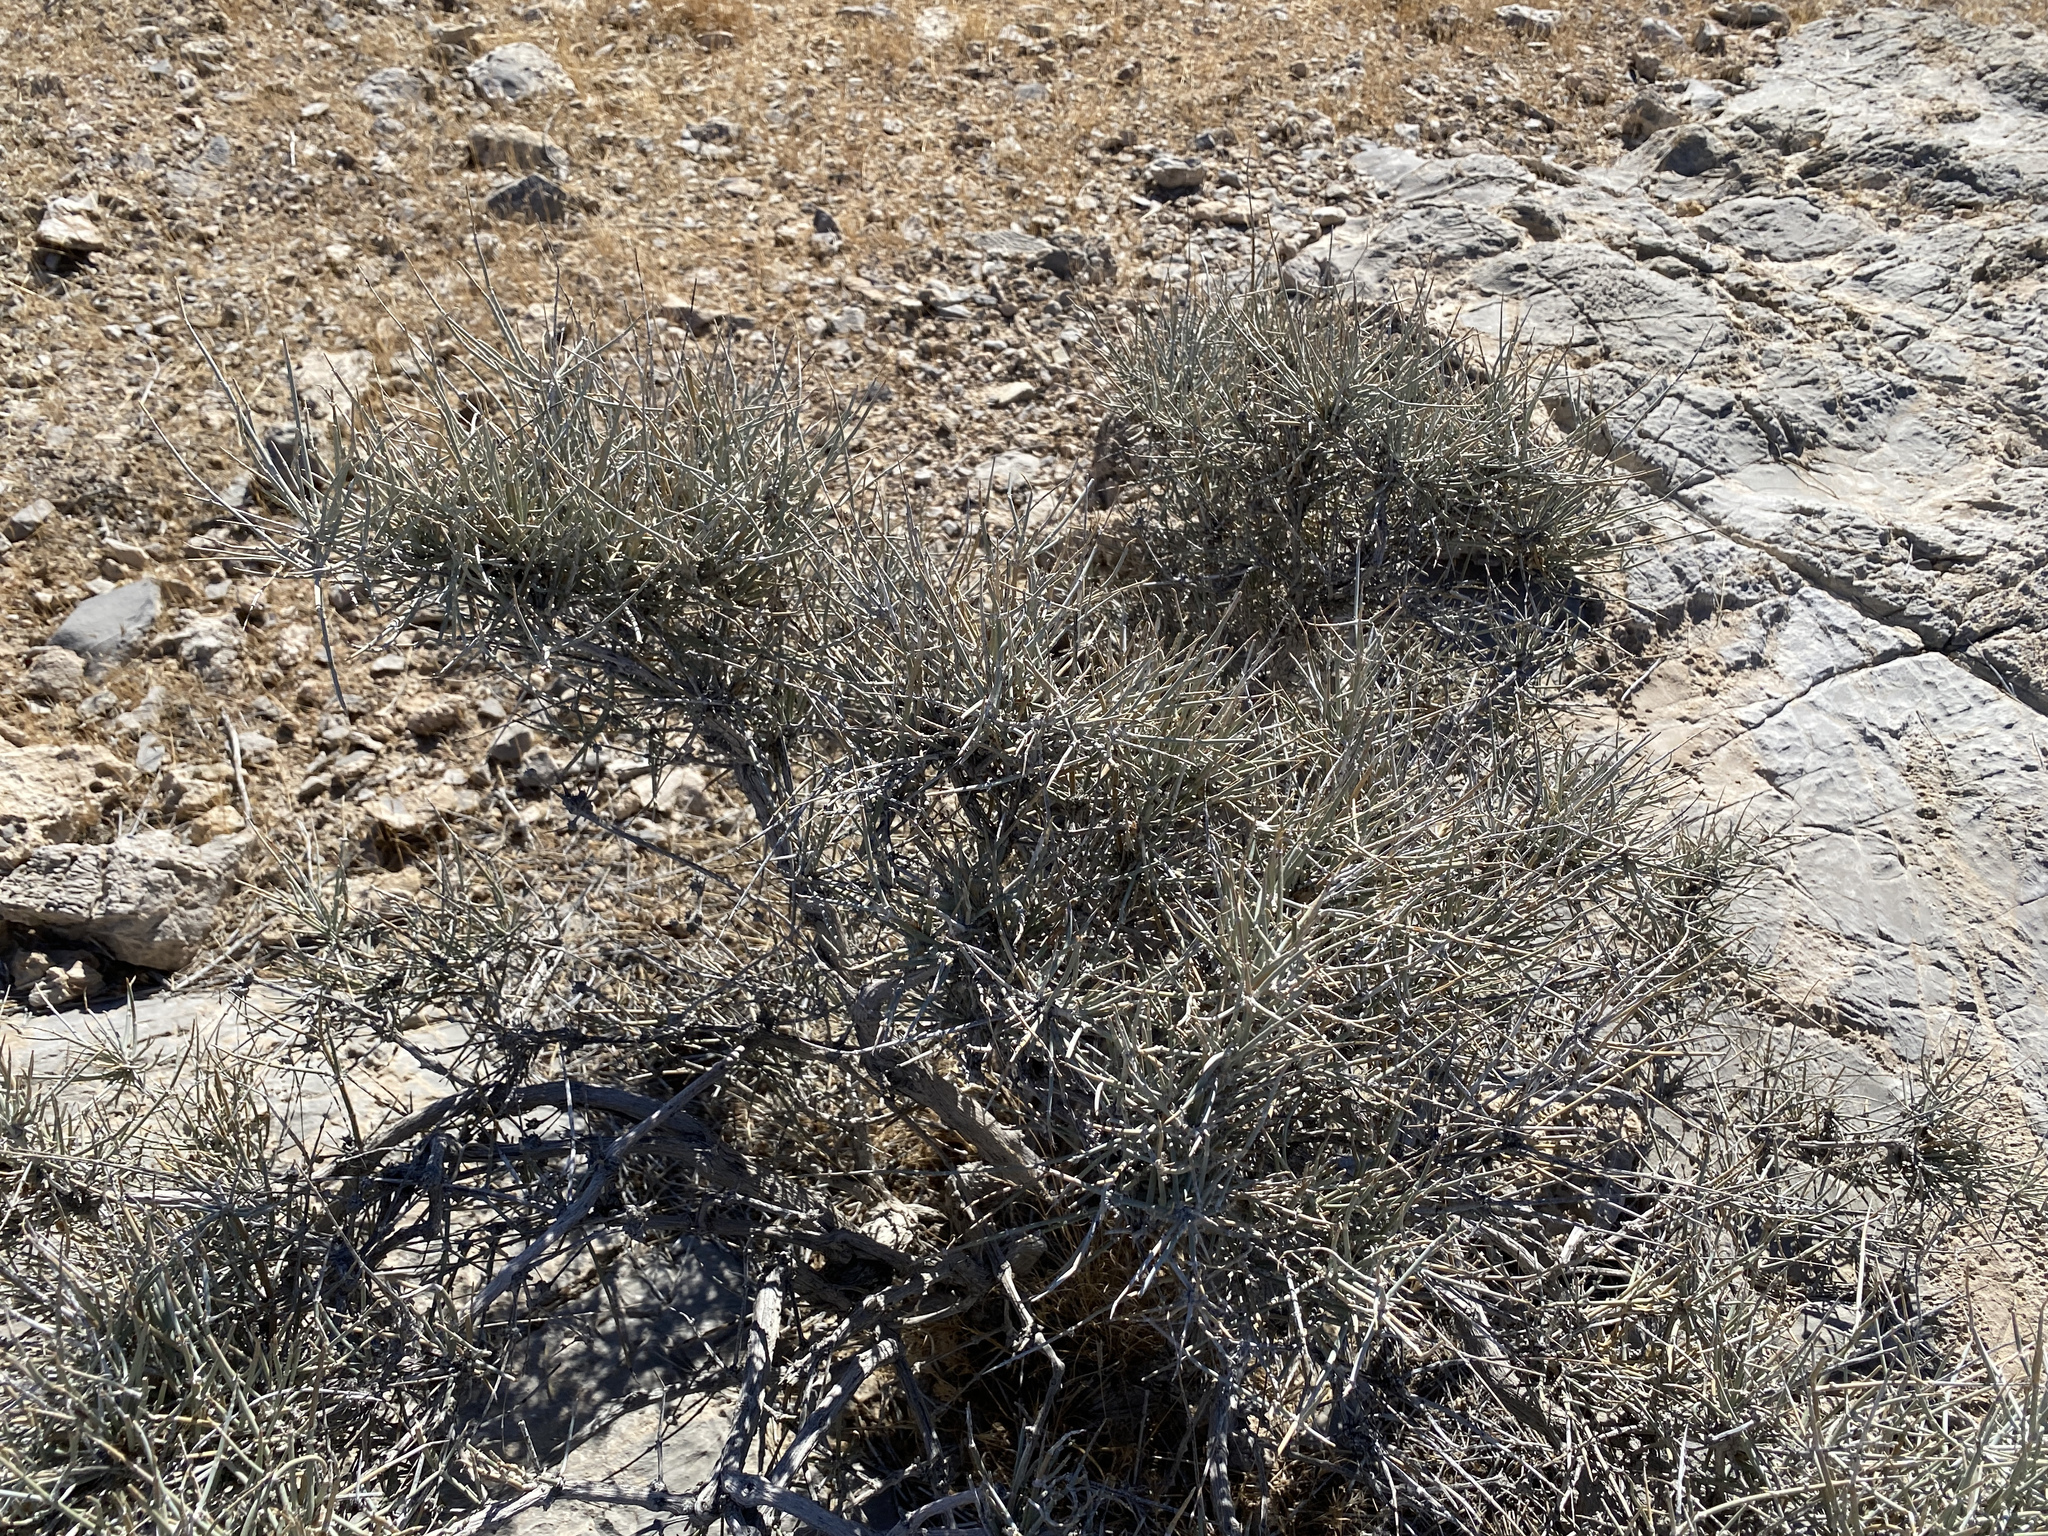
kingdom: Plantae
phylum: Tracheophyta
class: Gnetopsida
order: Ephedrales
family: Ephedraceae
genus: Ephedra
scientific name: Ephedra nevadensis
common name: Gray ephedra
